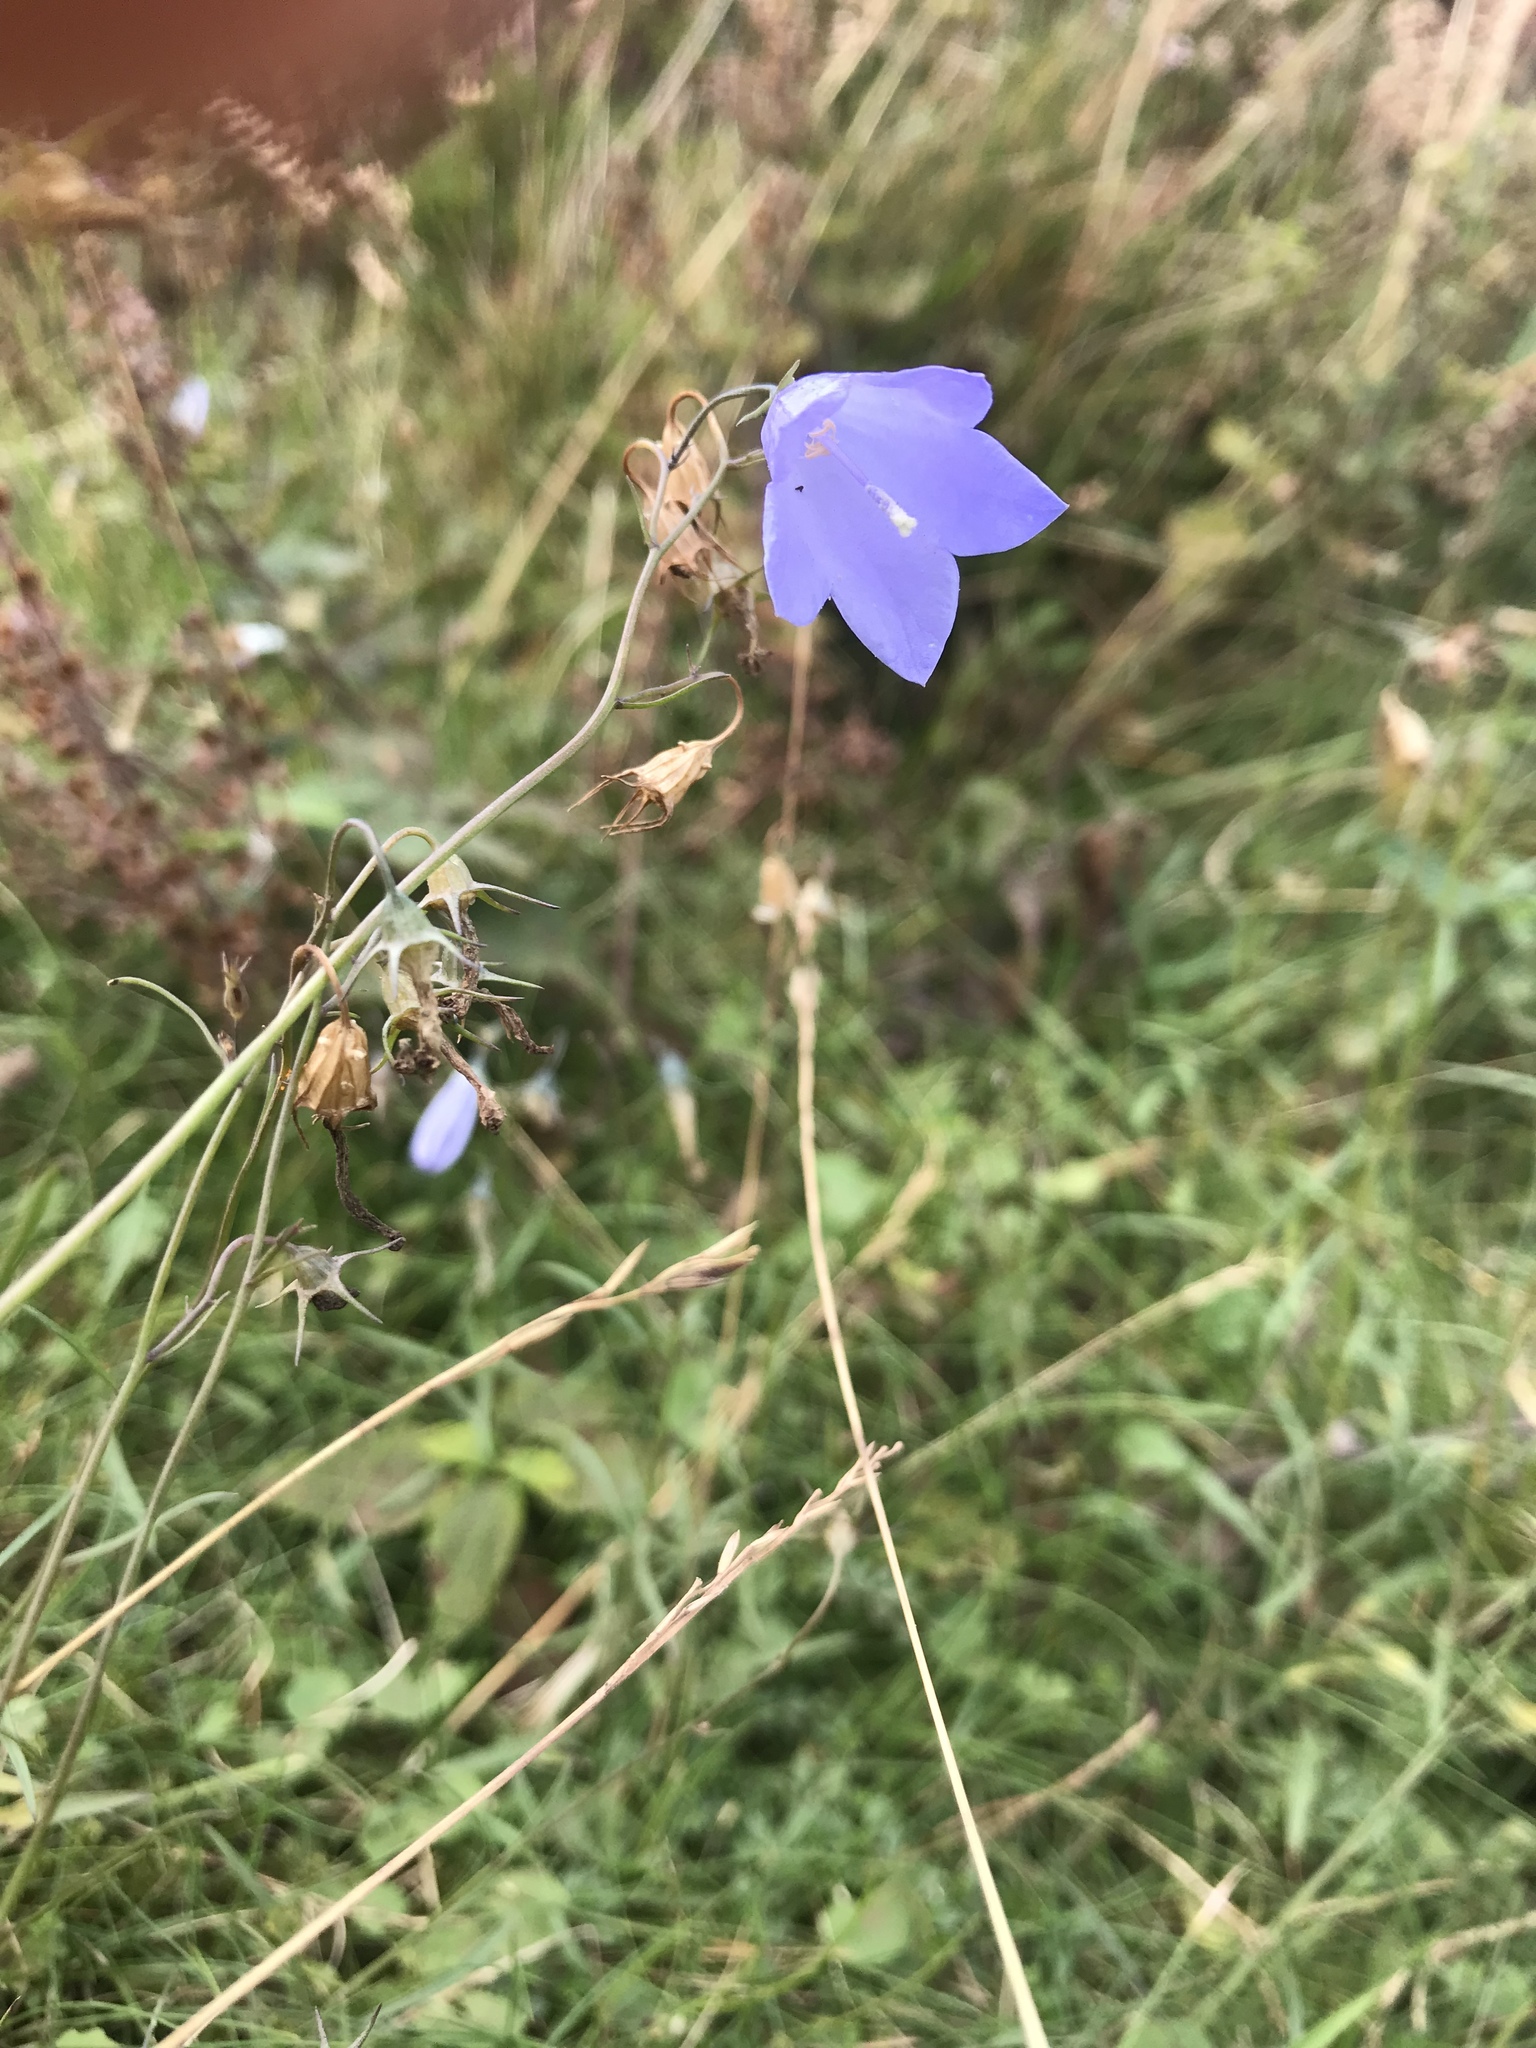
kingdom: Plantae
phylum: Tracheophyta
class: Magnoliopsida
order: Asterales
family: Campanulaceae
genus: Campanula
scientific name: Campanula rotundifolia
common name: Harebell
